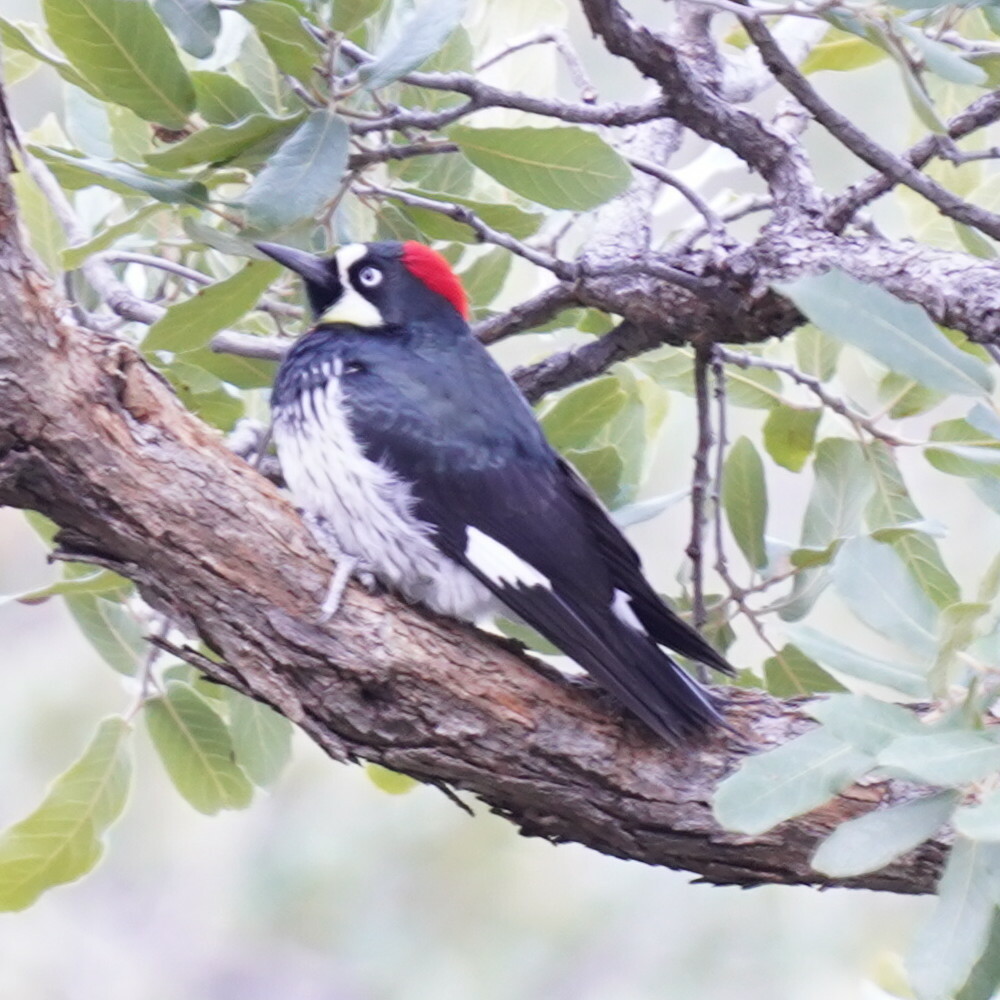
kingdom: Animalia
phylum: Chordata
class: Aves
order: Piciformes
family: Picidae
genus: Melanerpes
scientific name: Melanerpes formicivorus
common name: Acorn woodpecker
